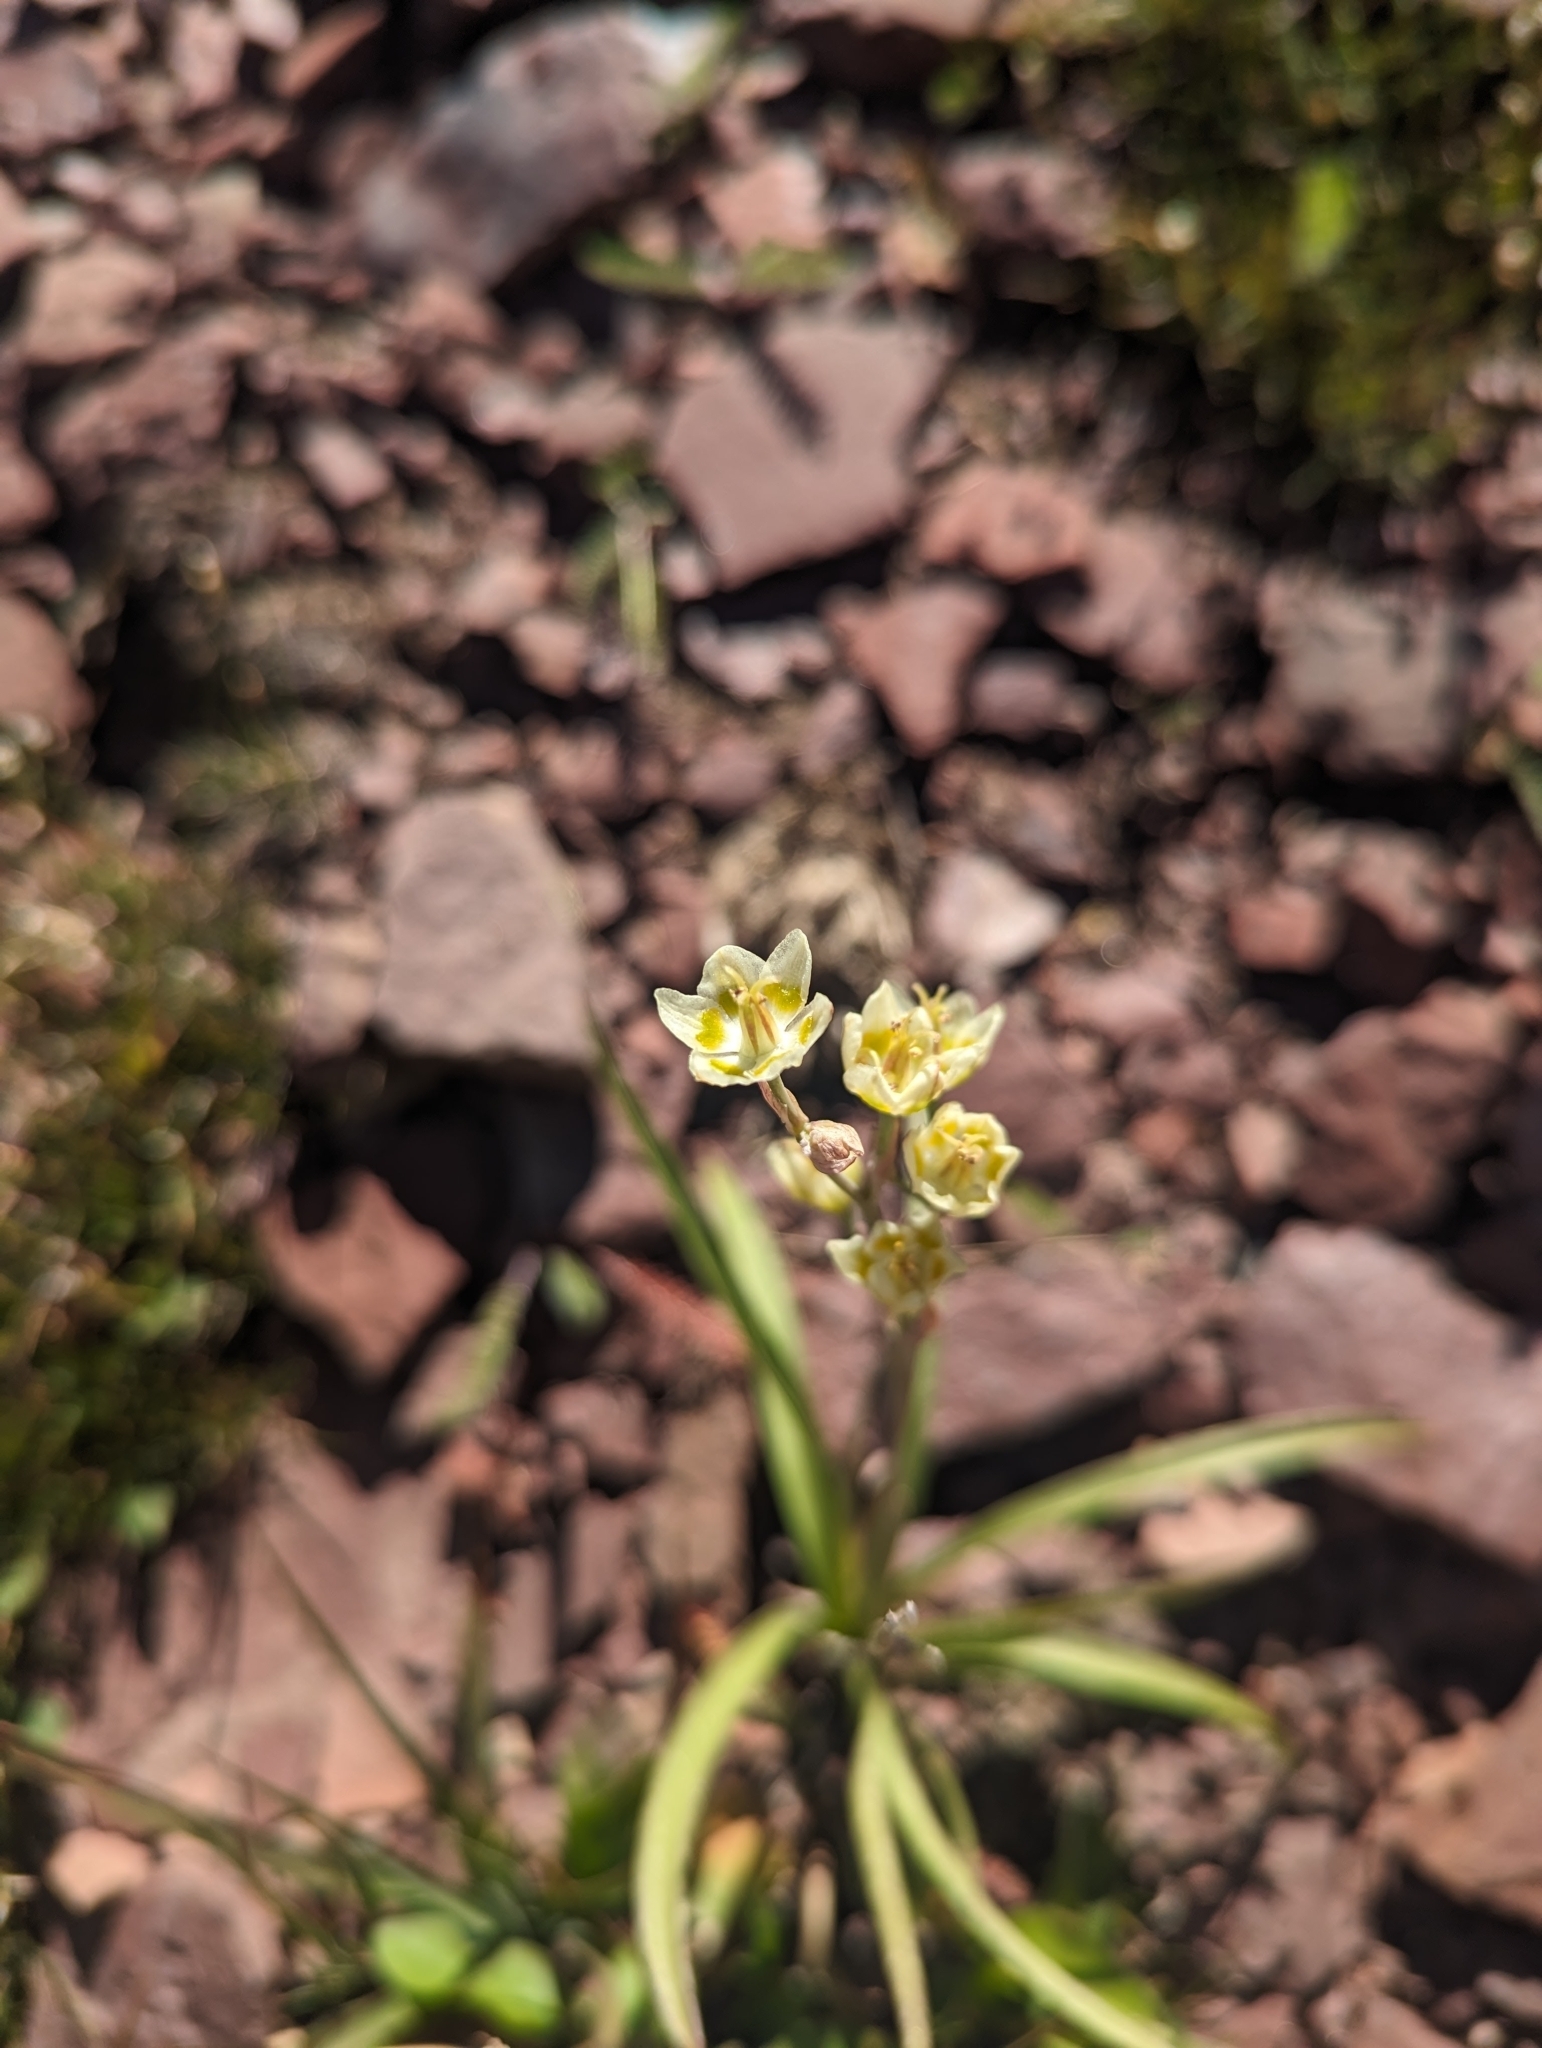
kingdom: Plantae
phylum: Tracheophyta
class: Liliopsida
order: Liliales
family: Melanthiaceae
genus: Anticlea
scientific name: Anticlea elegans
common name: Mountain death camas
